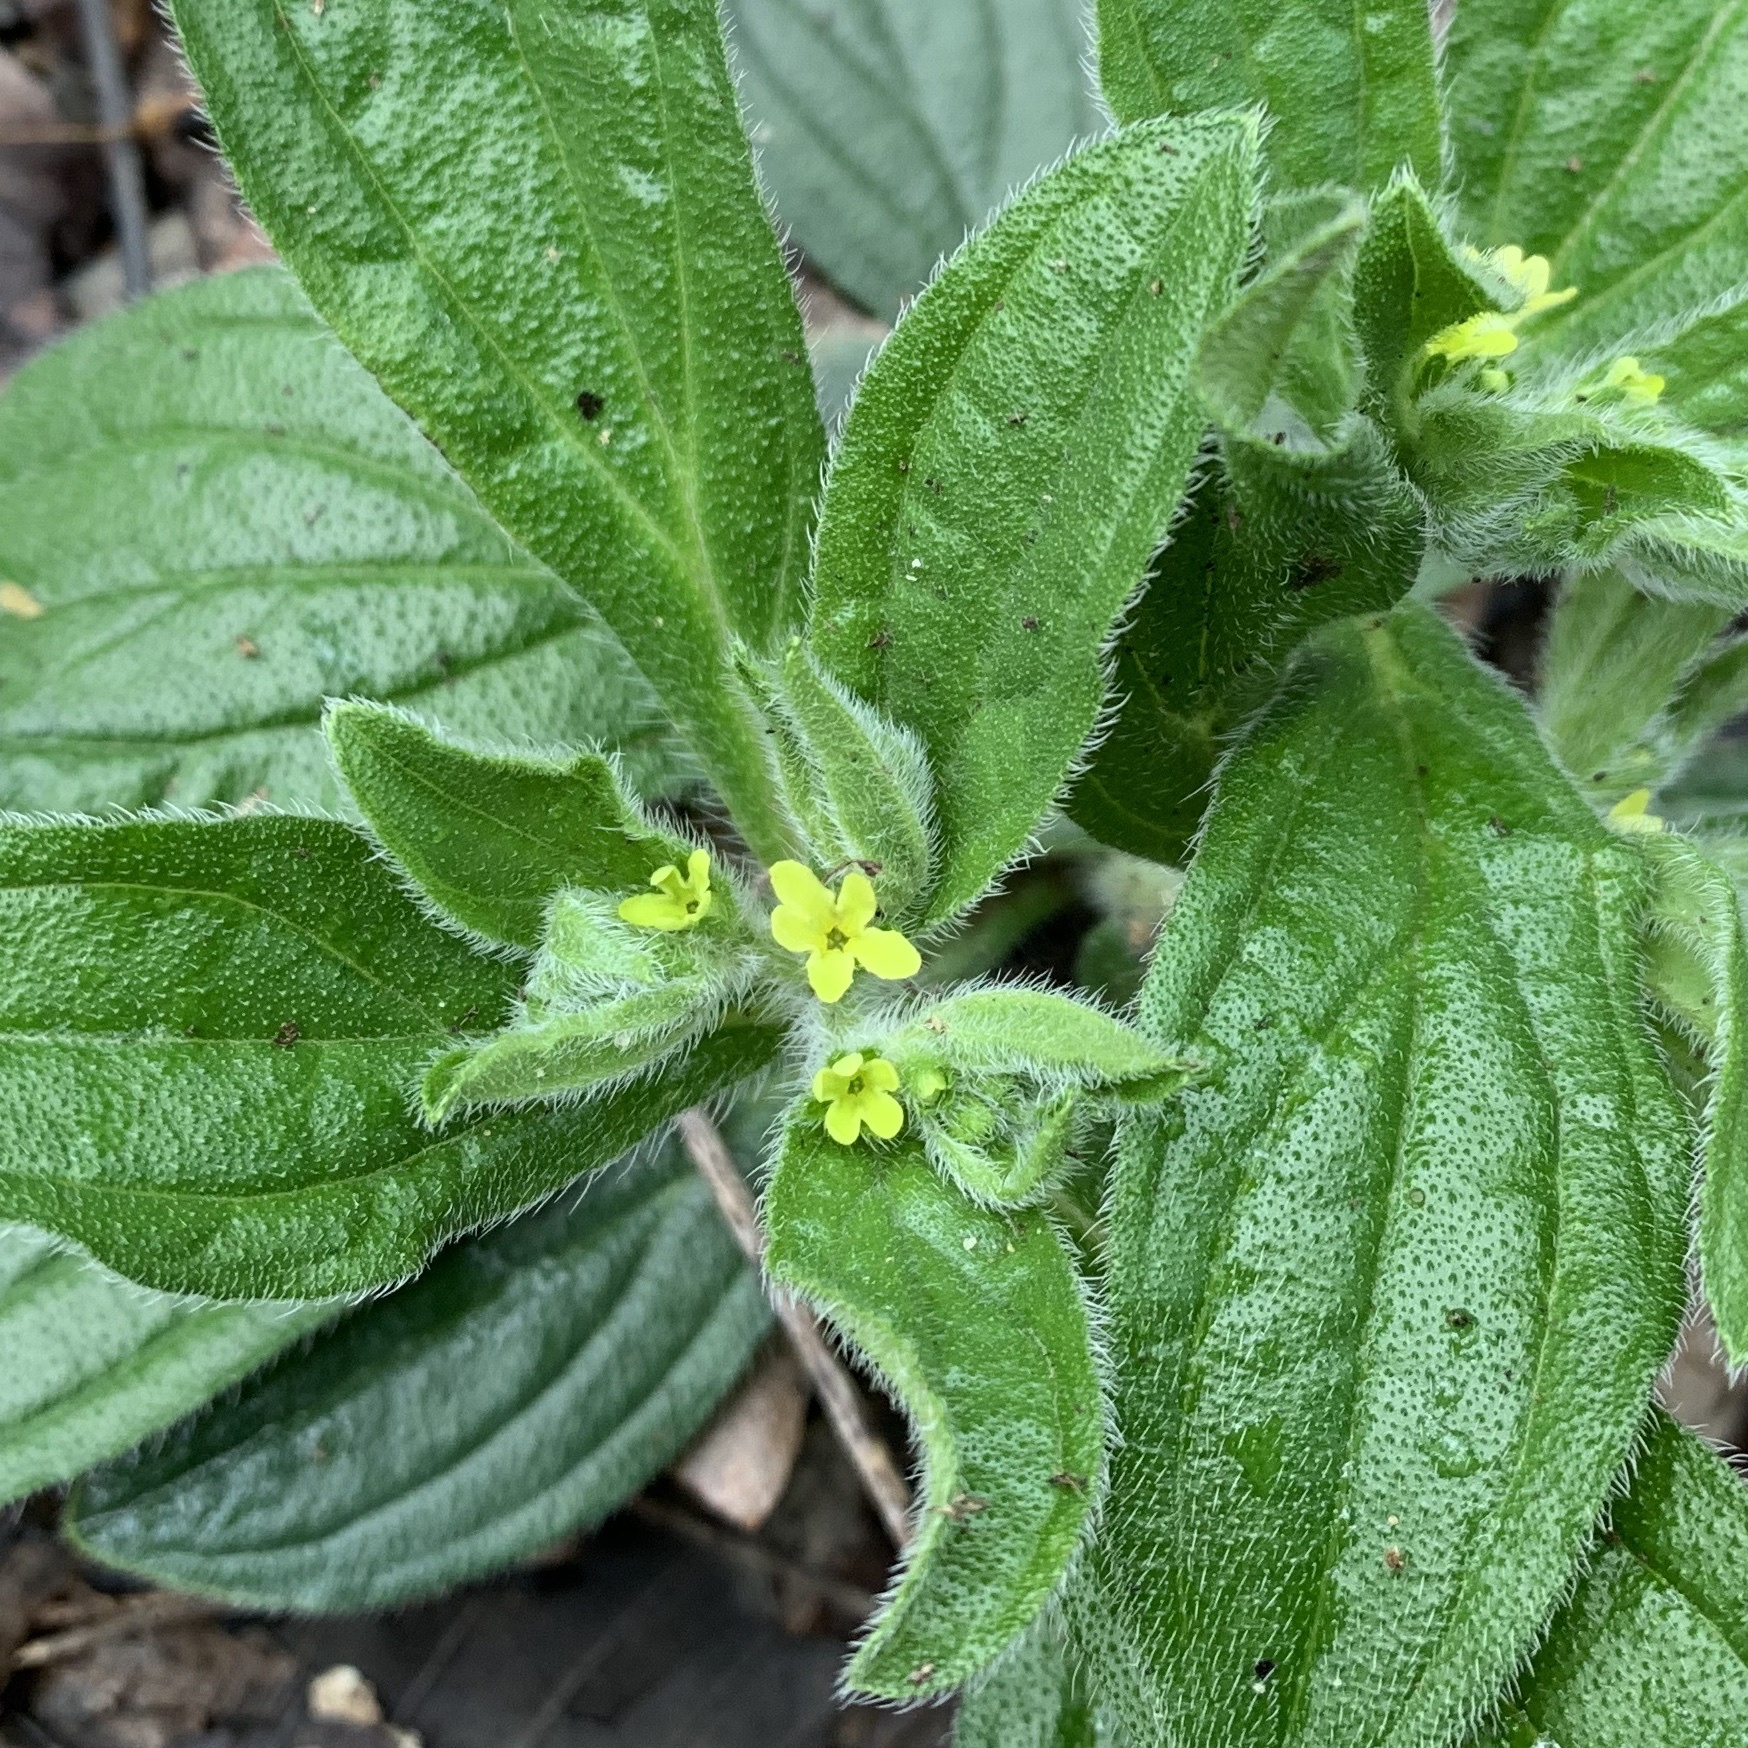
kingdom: Plantae
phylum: Tracheophyta
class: Magnoliopsida
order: Boraginales
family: Boraginaceae
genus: Lithospermum
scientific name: Lithospermum tuberosum
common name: Southern stoneseed
